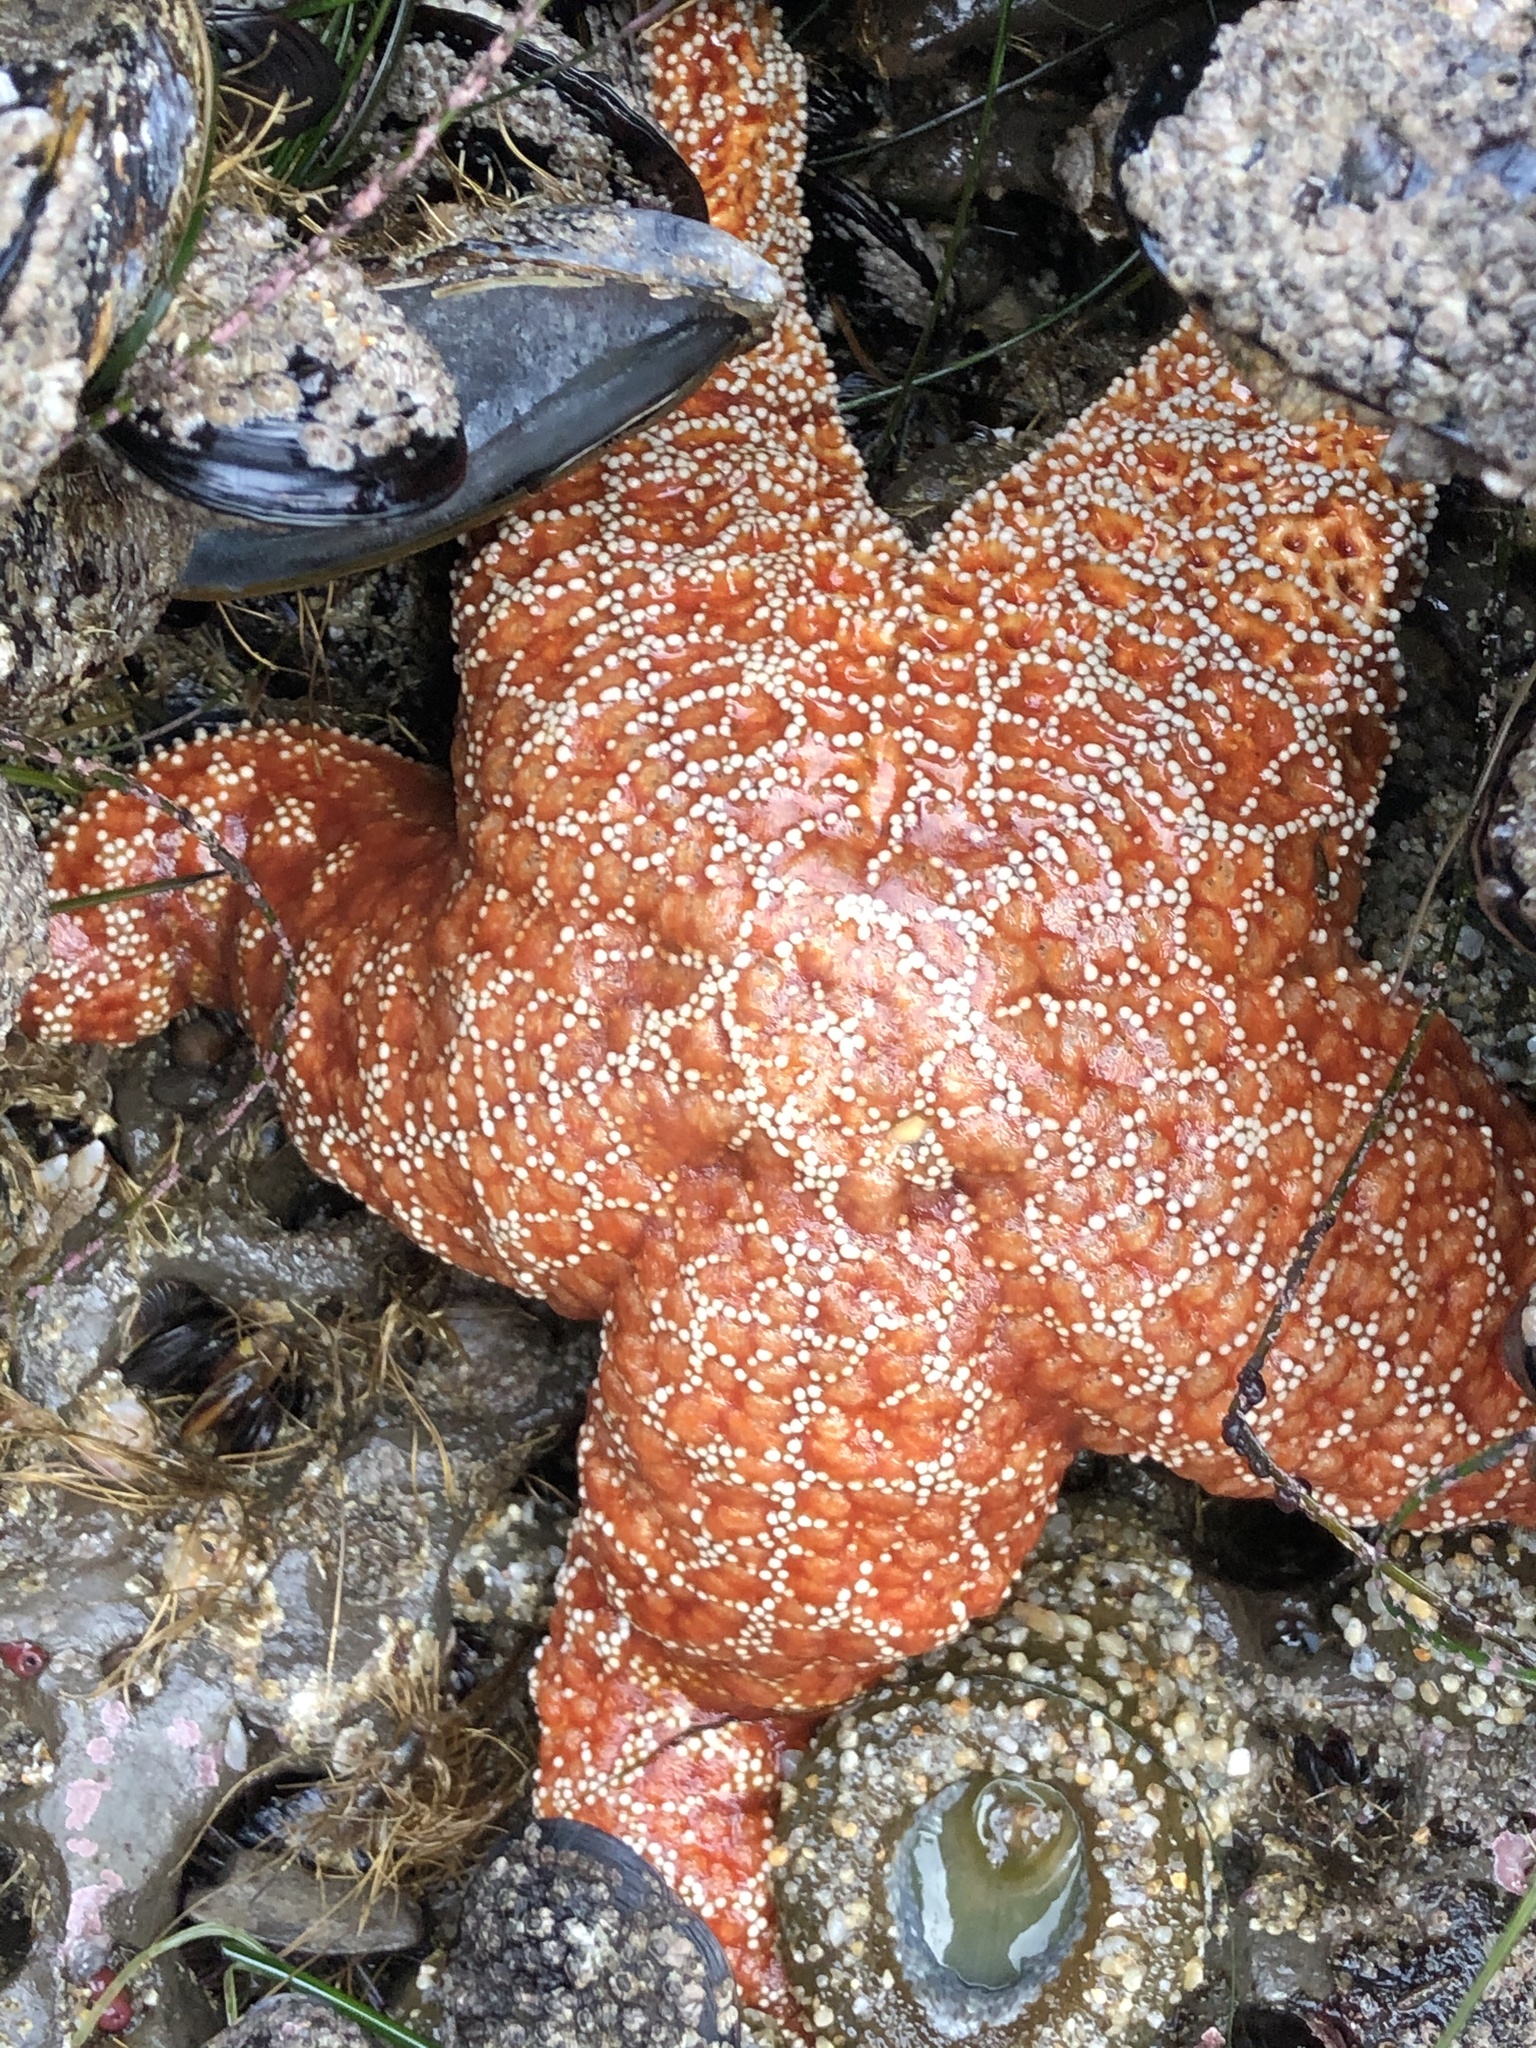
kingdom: Animalia
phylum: Echinodermata
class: Asteroidea
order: Forcipulatida
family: Asteriidae
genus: Pisaster
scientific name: Pisaster ochraceus
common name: Ochre stars
